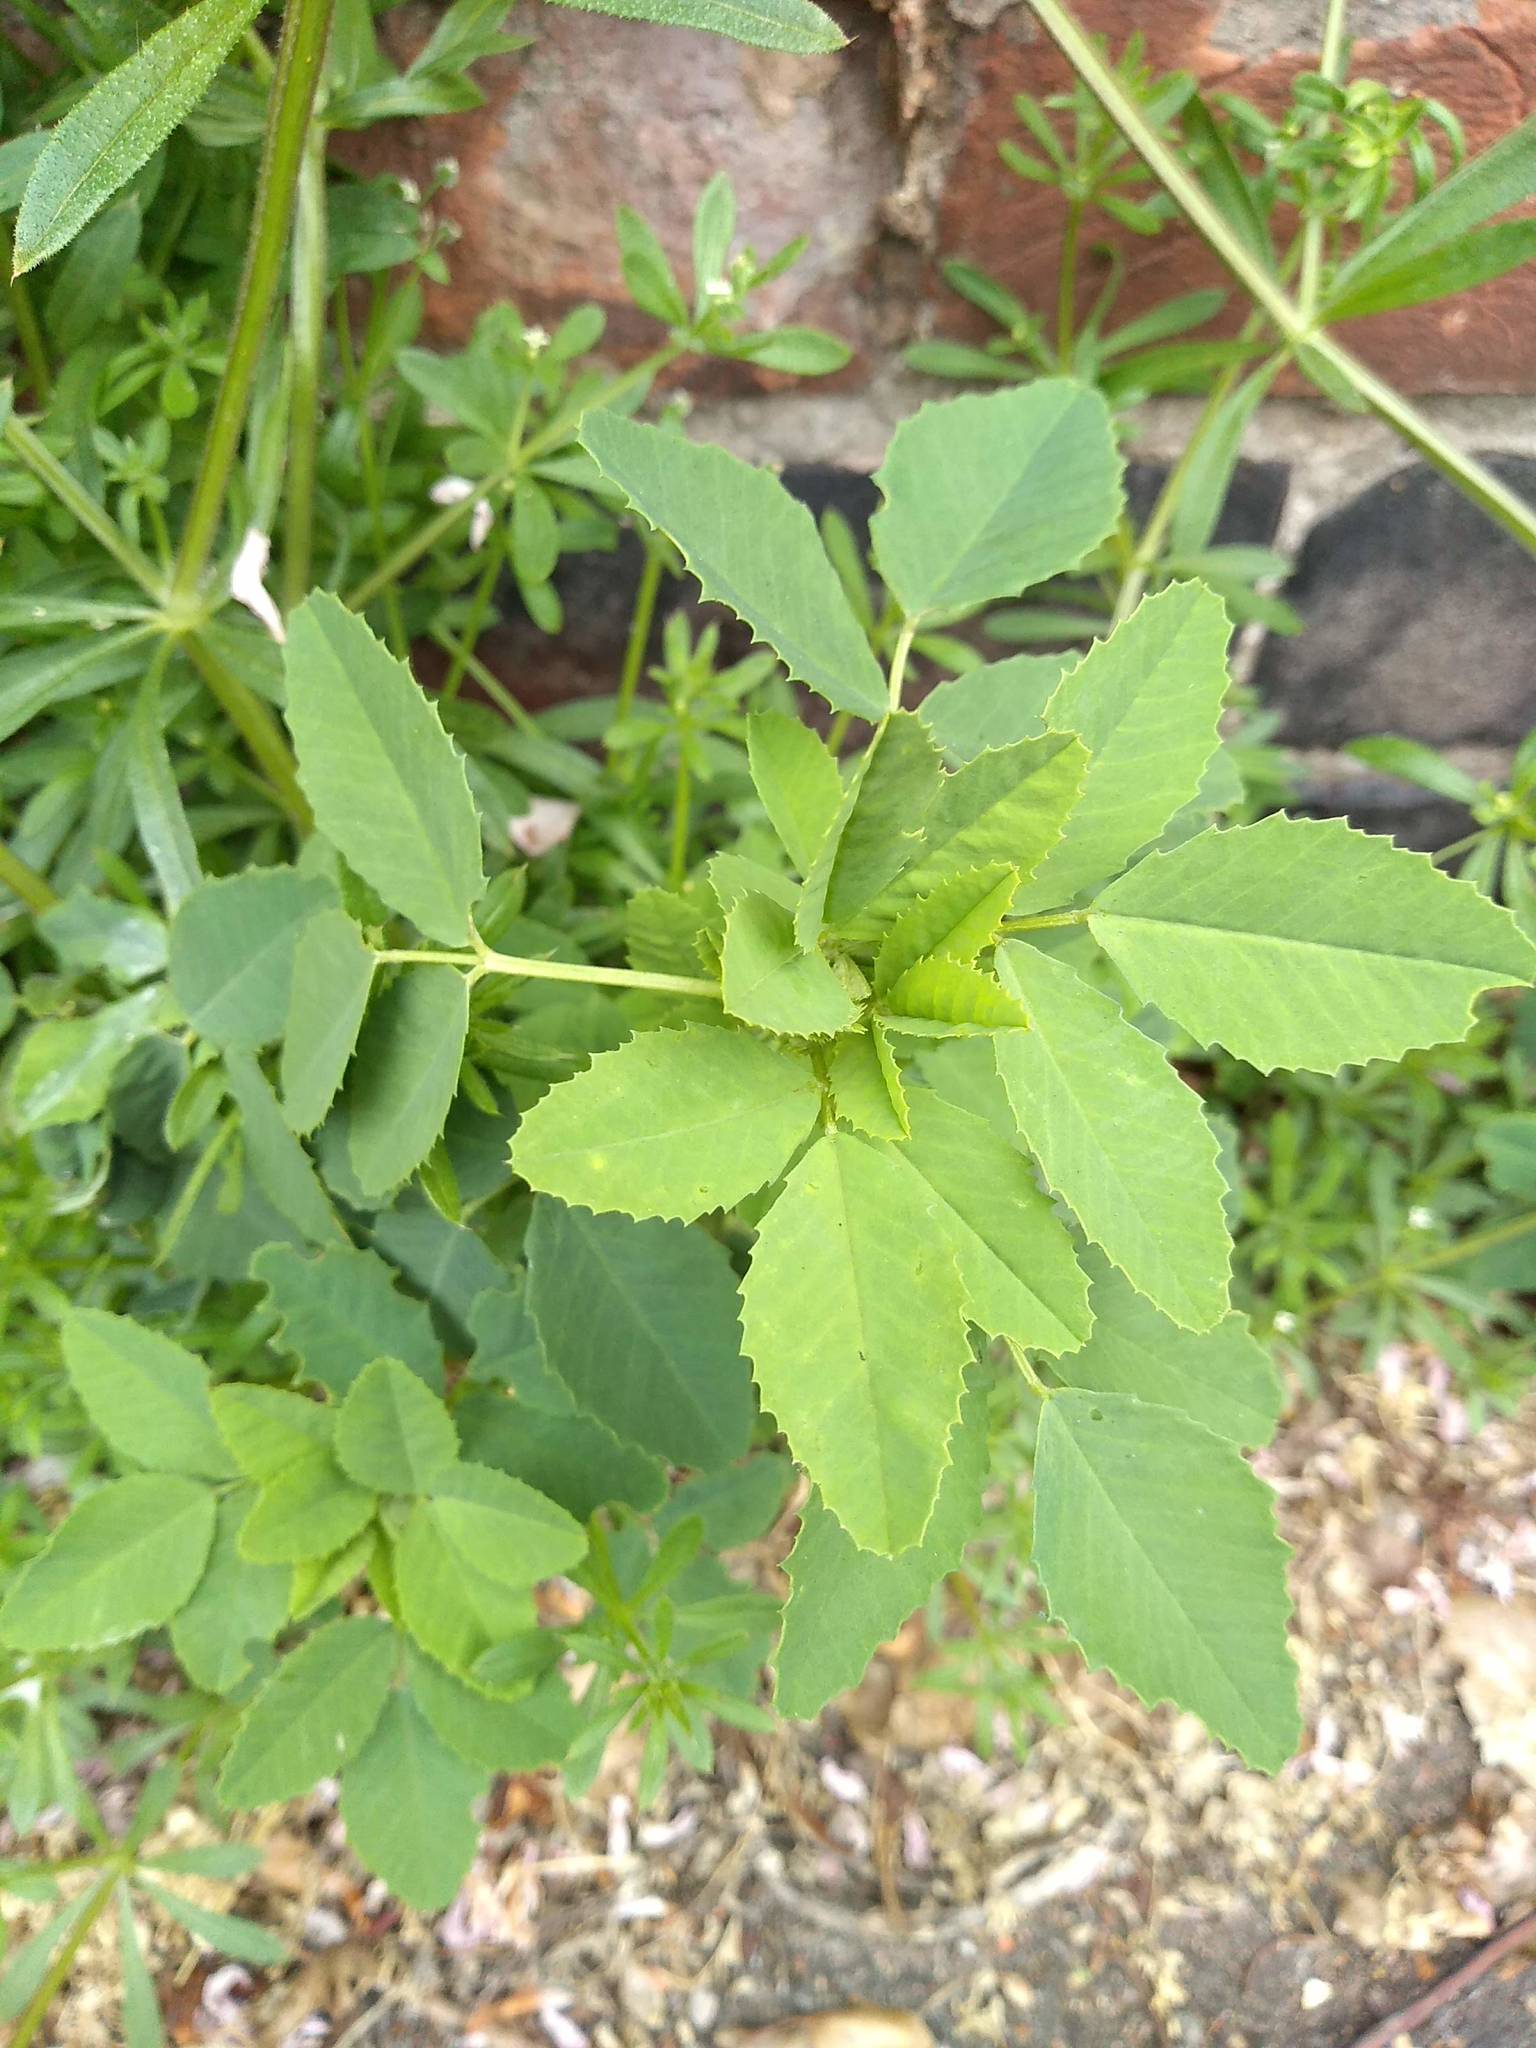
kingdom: Plantae
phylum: Tracheophyta
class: Magnoliopsida
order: Fabales
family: Fabaceae
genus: Melilotus
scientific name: Melilotus albus
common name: White melilot
